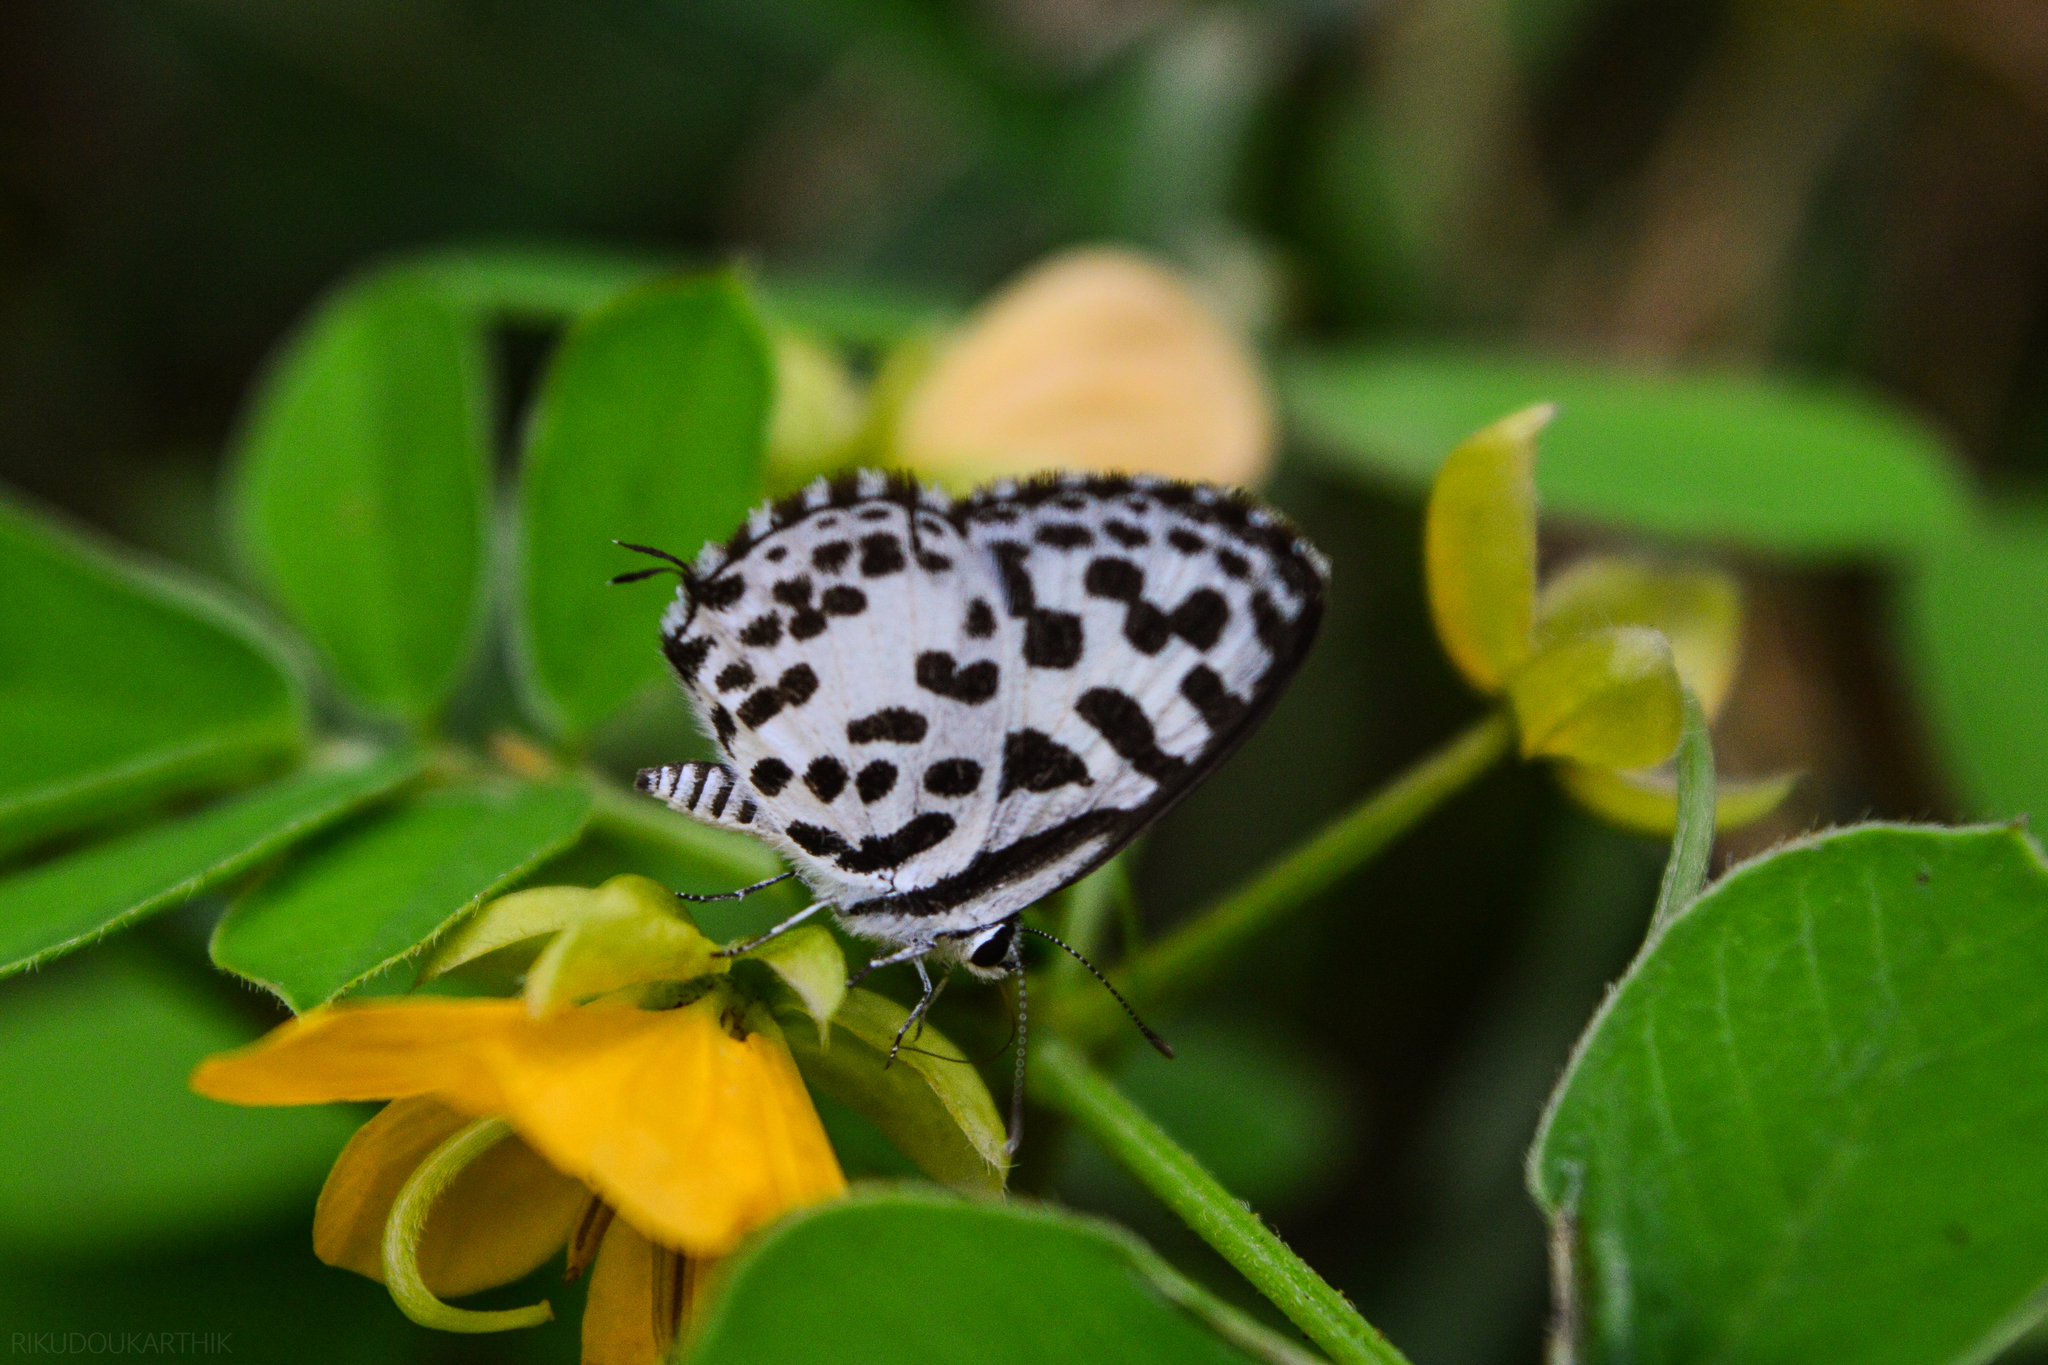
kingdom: Animalia
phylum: Arthropoda
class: Insecta
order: Lepidoptera
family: Lycaenidae
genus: Castalius
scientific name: Castalius rosimon
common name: Common pierrot
